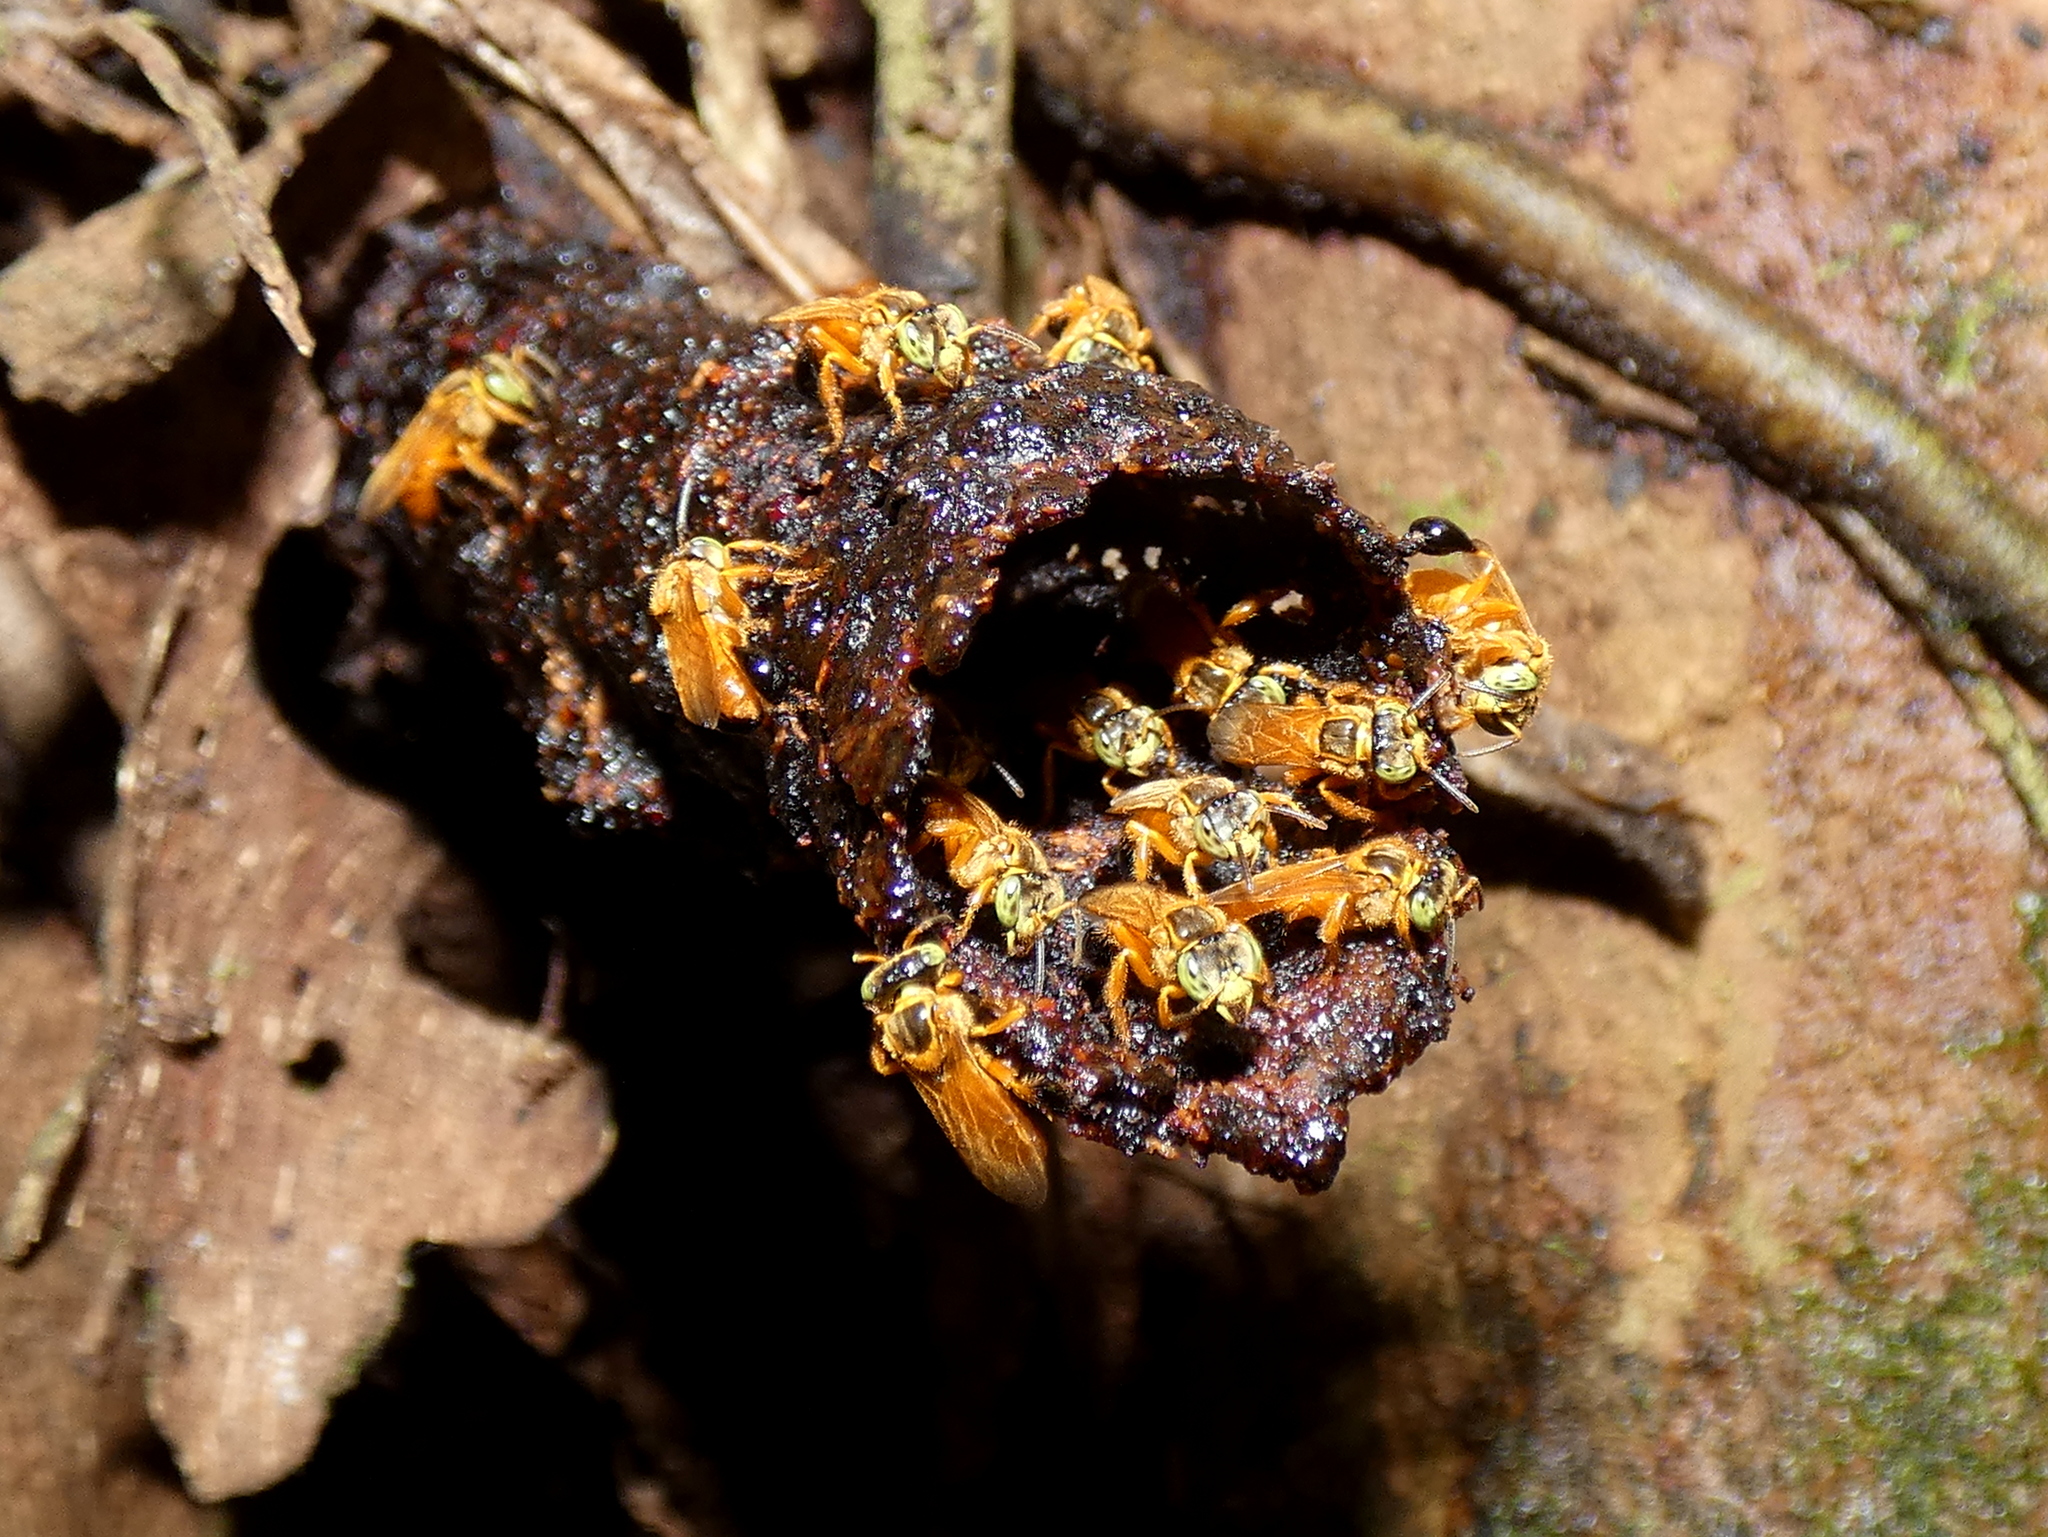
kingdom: Animalia
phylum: Arthropoda
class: Insecta
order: Hymenoptera
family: Apidae
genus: Tetragona
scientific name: Tetragona ziegleri
